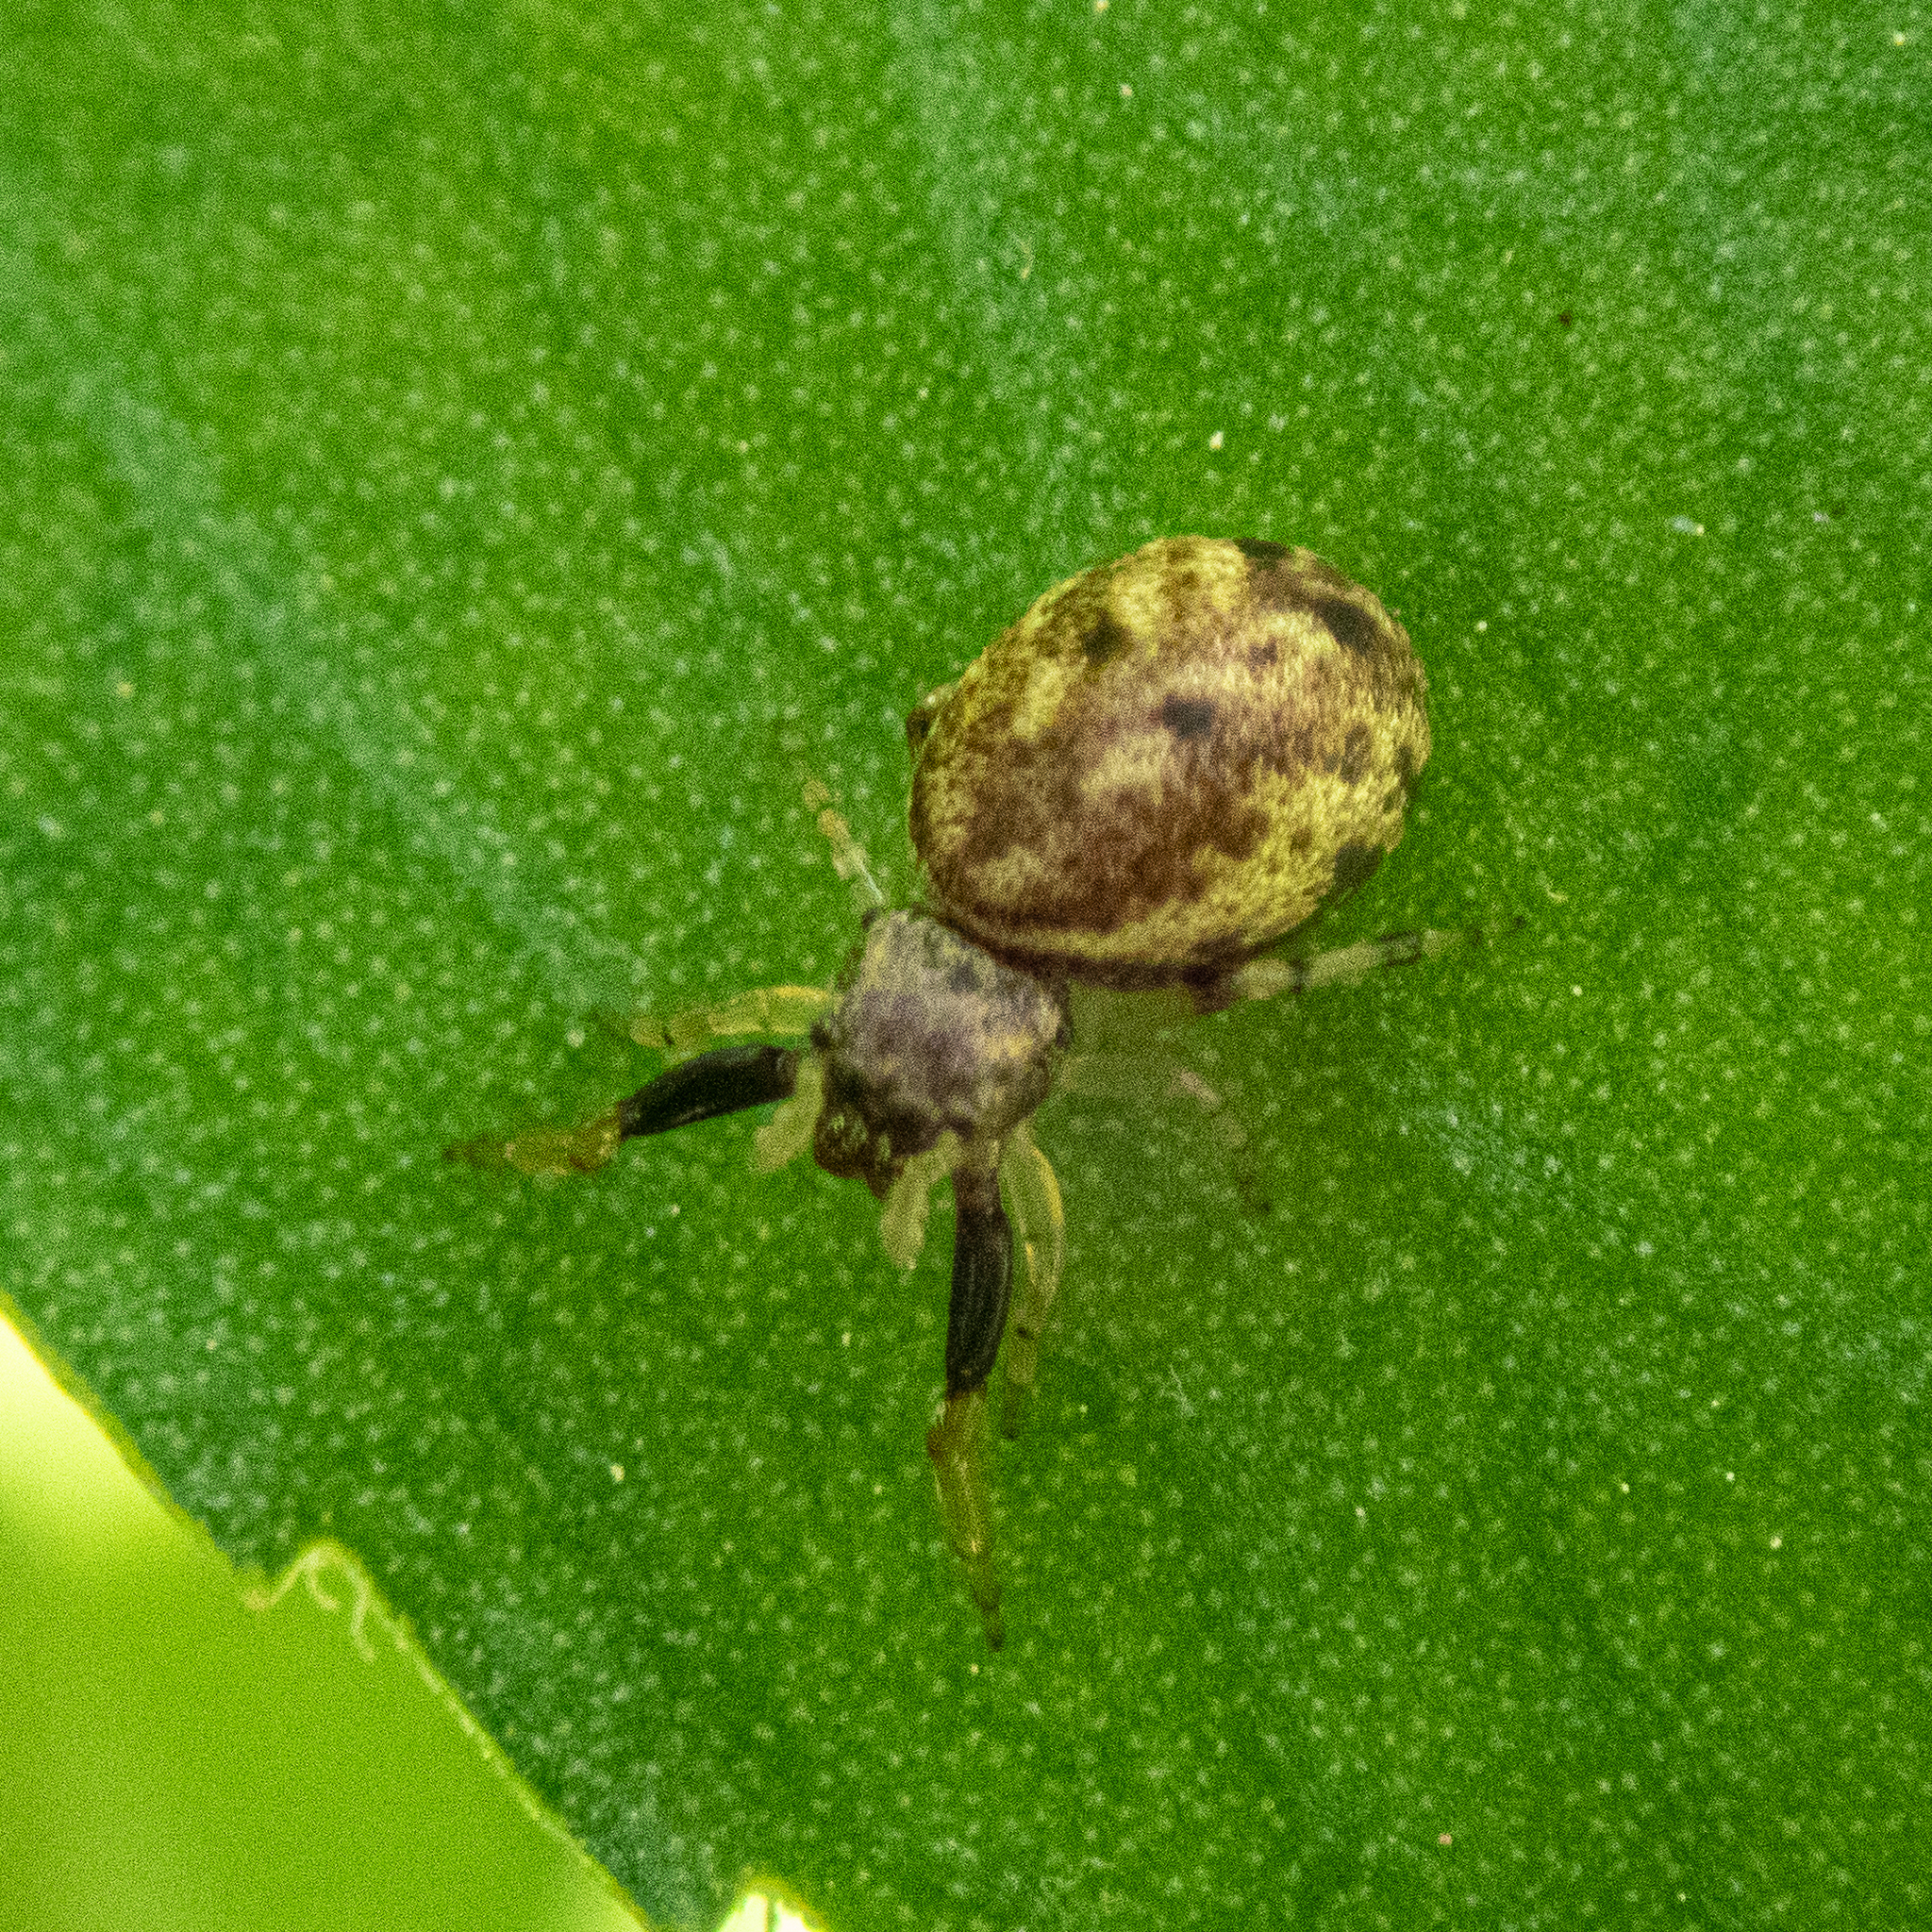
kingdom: Animalia
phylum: Arthropoda
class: Arachnida
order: Araneae
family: Salticidae
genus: Zygoballus
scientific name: Zygoballus rufipes
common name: Jumping spiders
